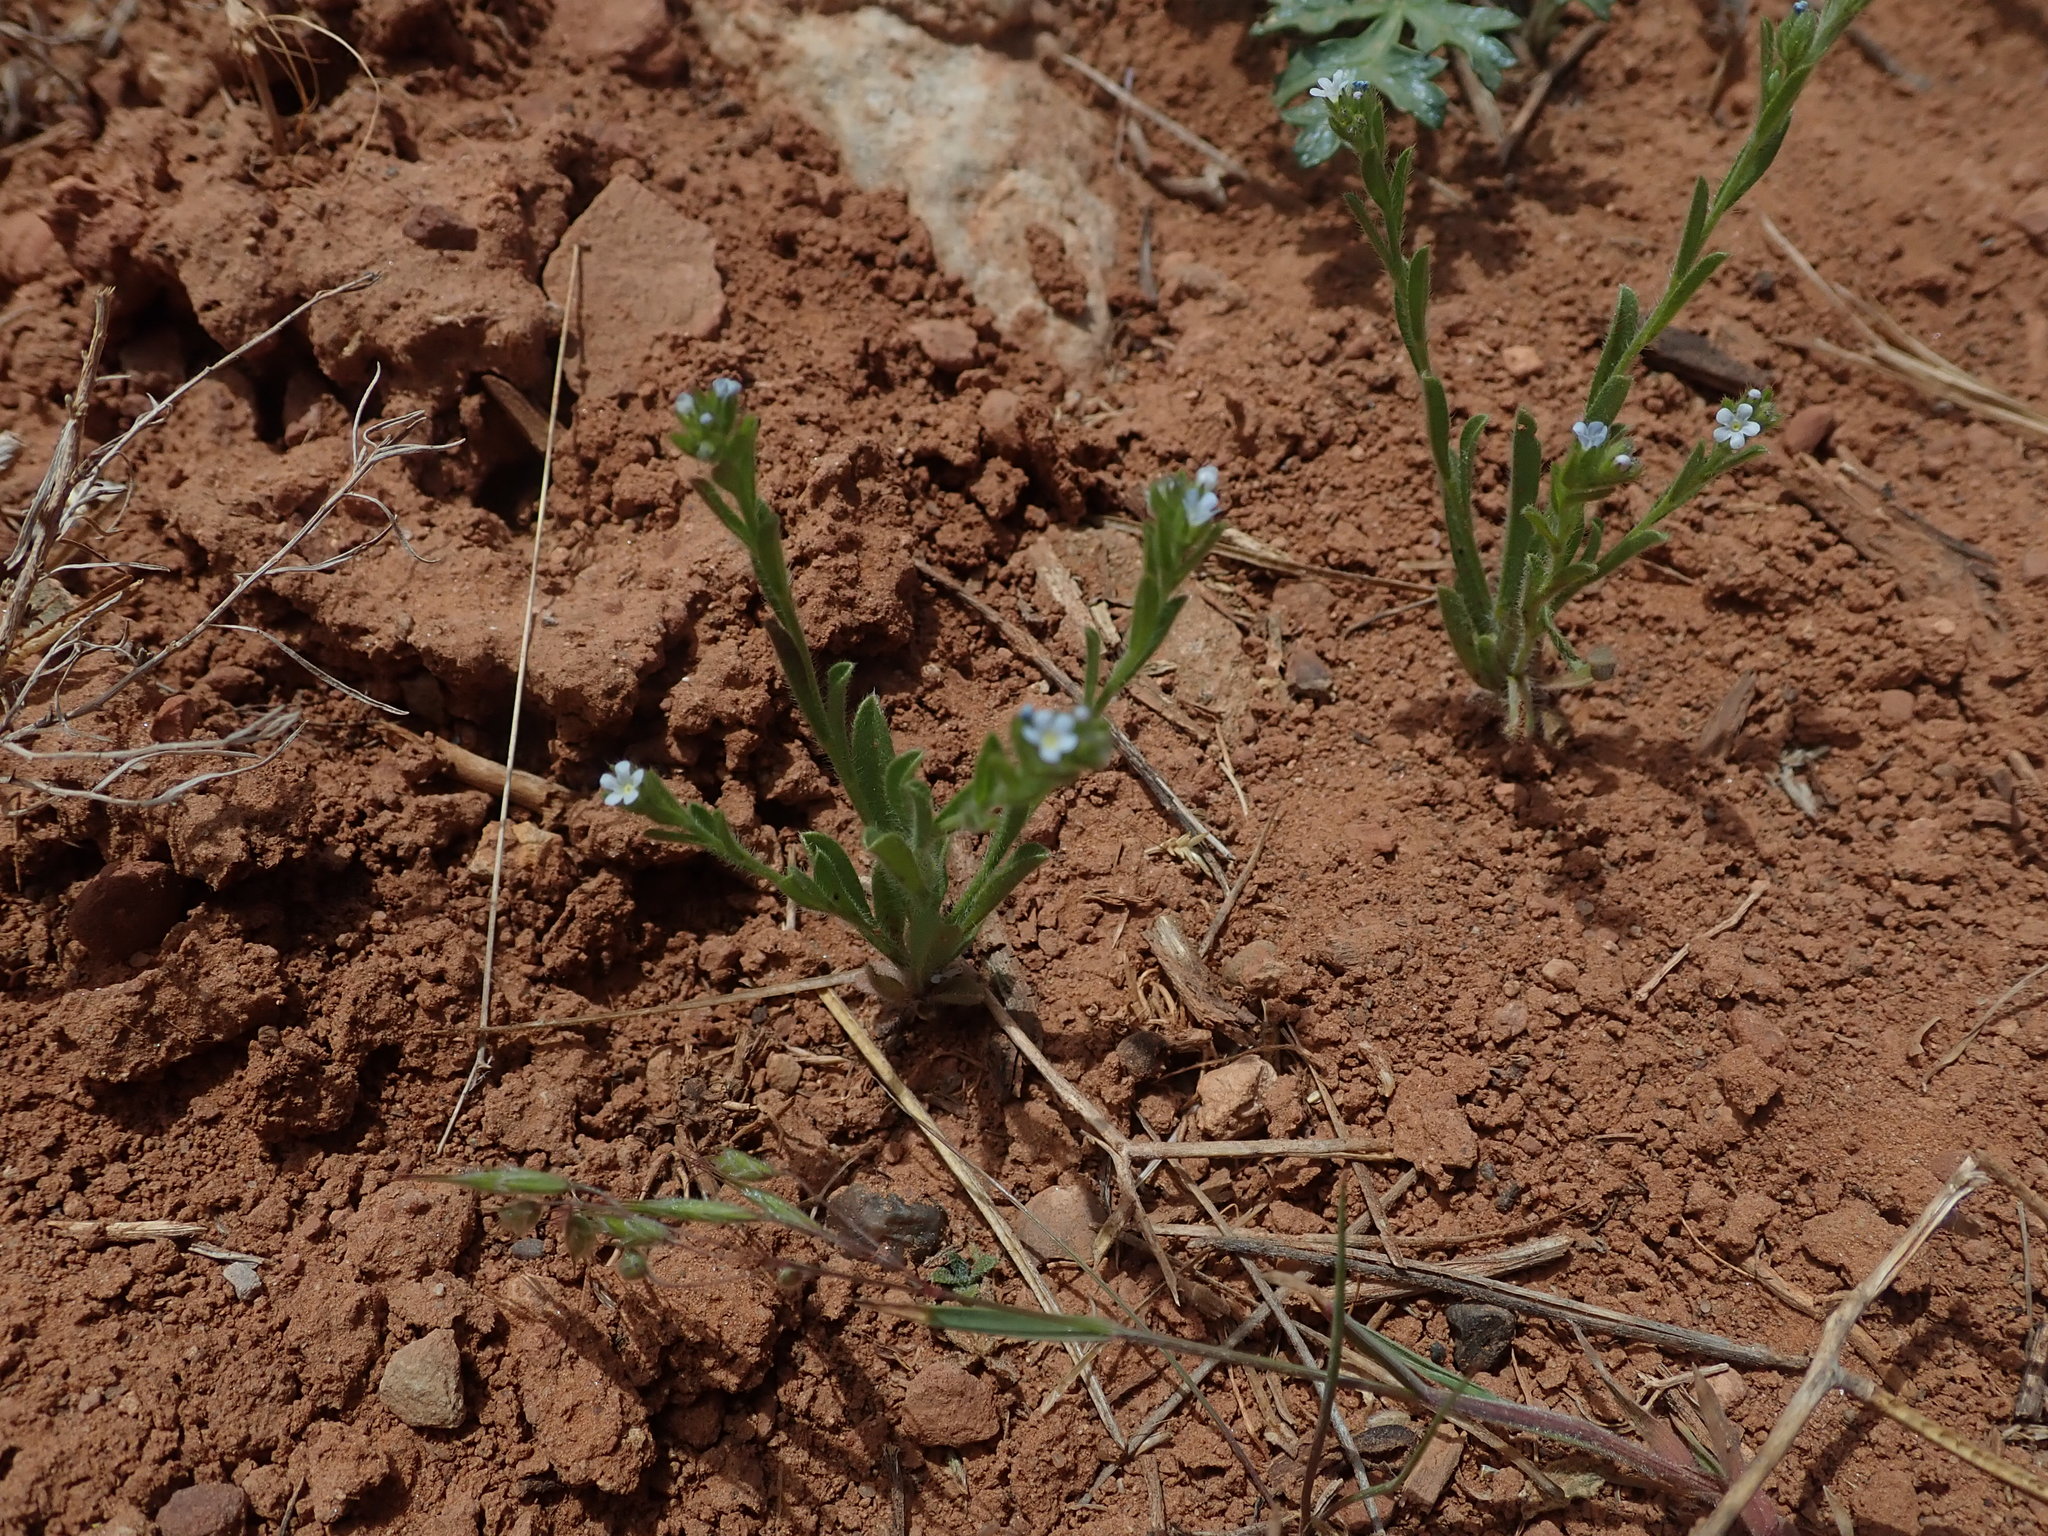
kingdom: Plantae
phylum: Tracheophyta
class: Magnoliopsida
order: Boraginales
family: Boraginaceae
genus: Lappula
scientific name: Lappula occidentalis
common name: Western stickseed
